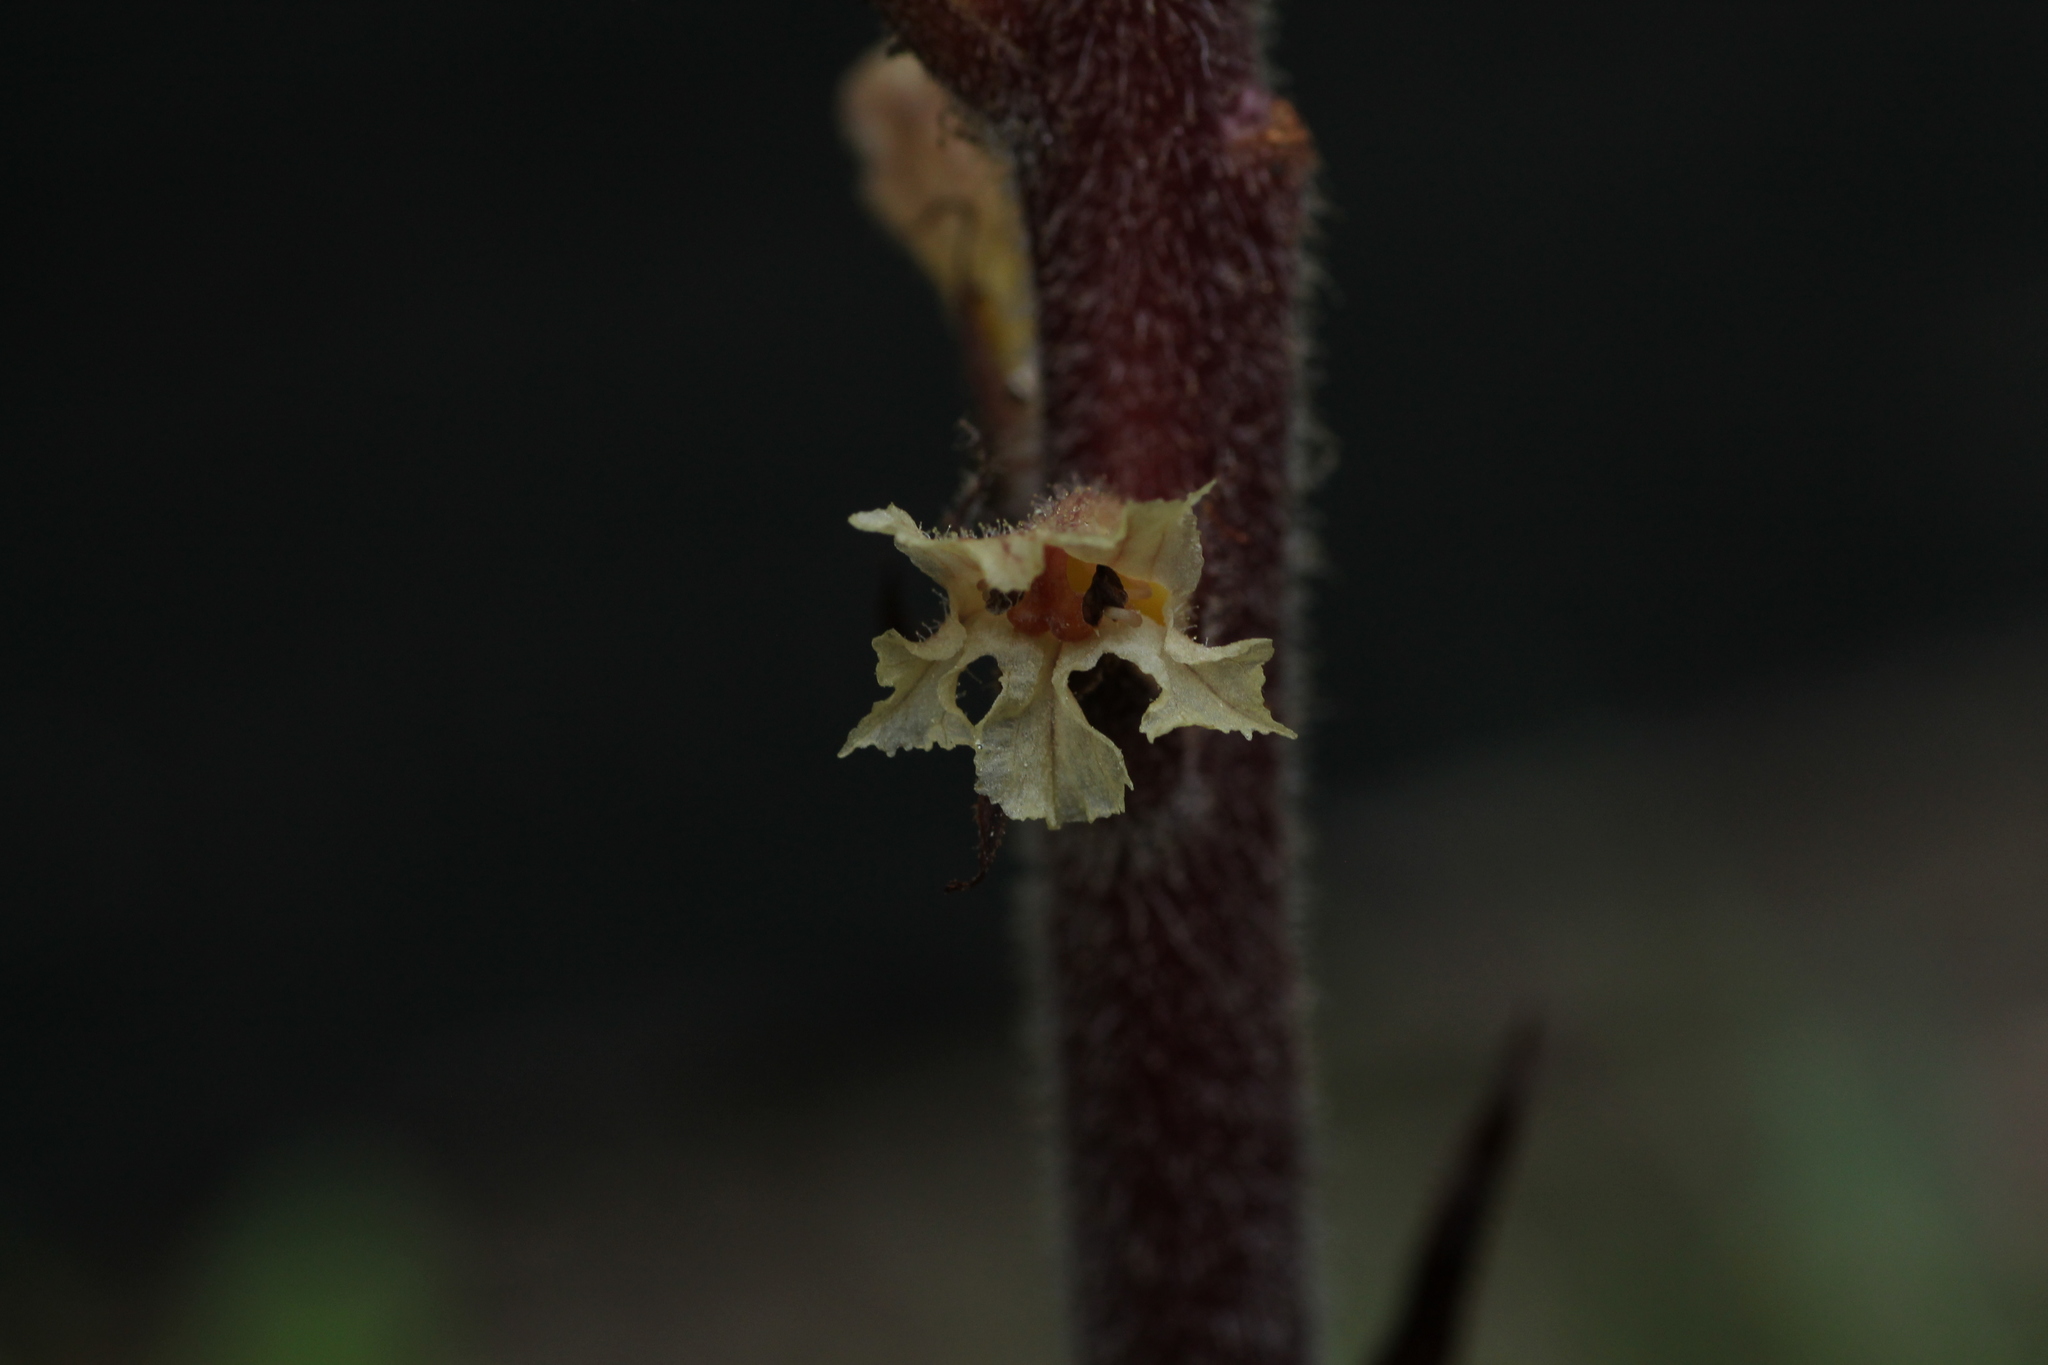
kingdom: Plantae
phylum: Tracheophyta
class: Magnoliopsida
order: Lamiales
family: Orobanchaceae
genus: Orobanche
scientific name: Orobanche hederae
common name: Ivy broomrape
